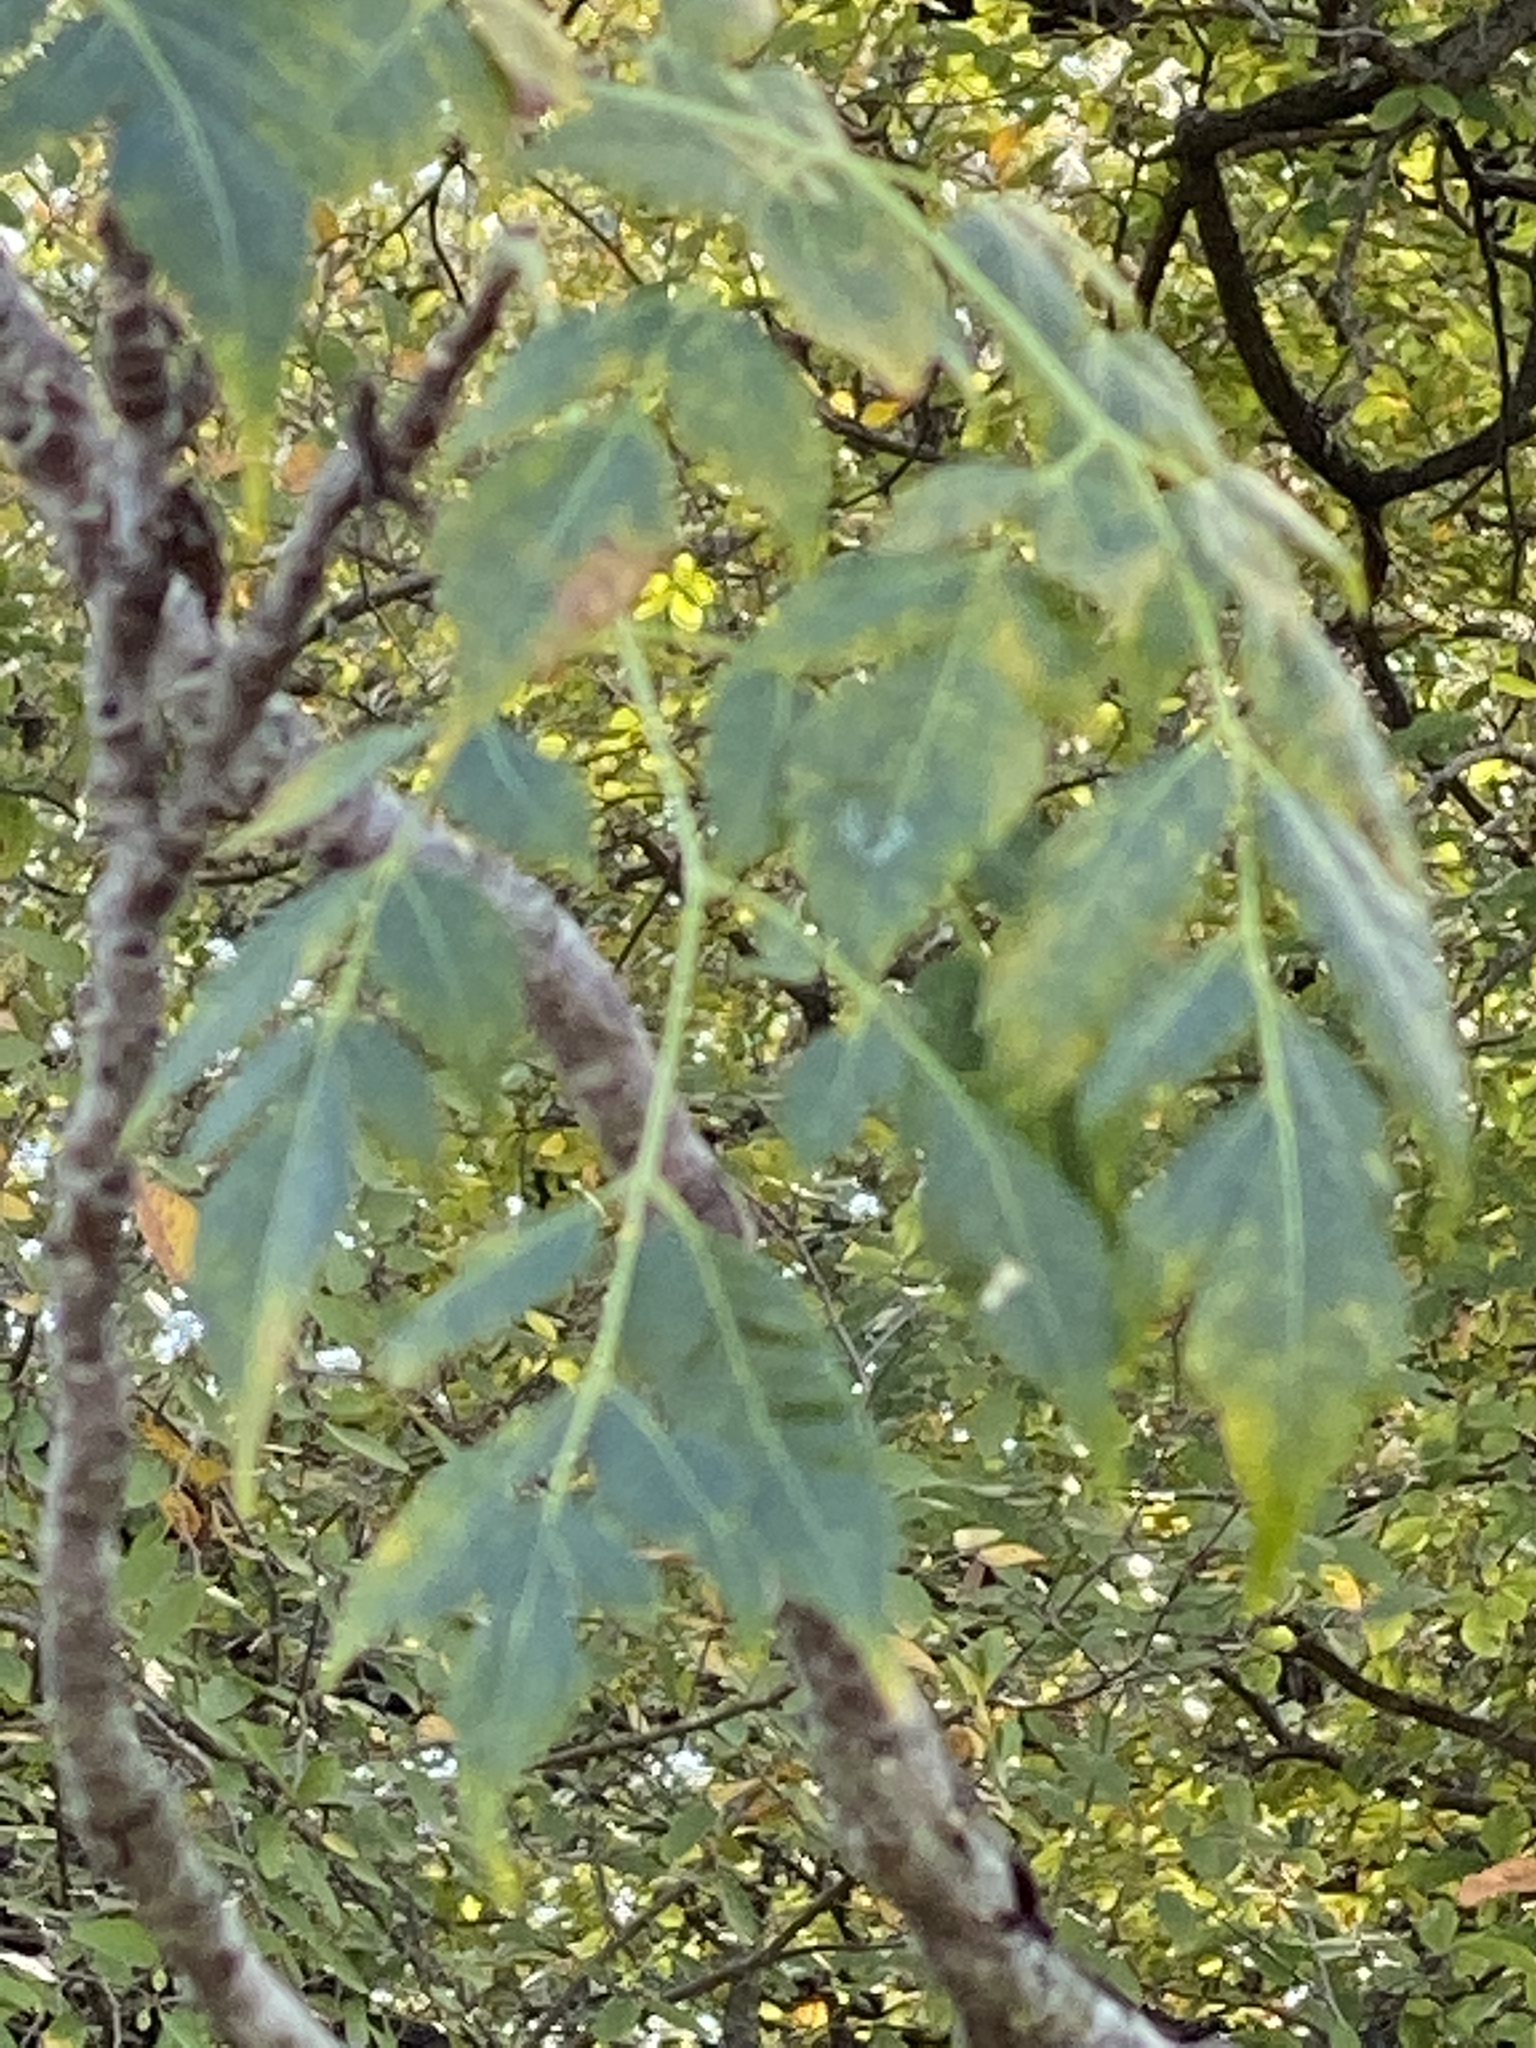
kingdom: Plantae
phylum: Tracheophyta
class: Magnoliopsida
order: Sapindales
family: Meliaceae
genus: Melia
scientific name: Melia azedarach
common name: Chinaberrytree
